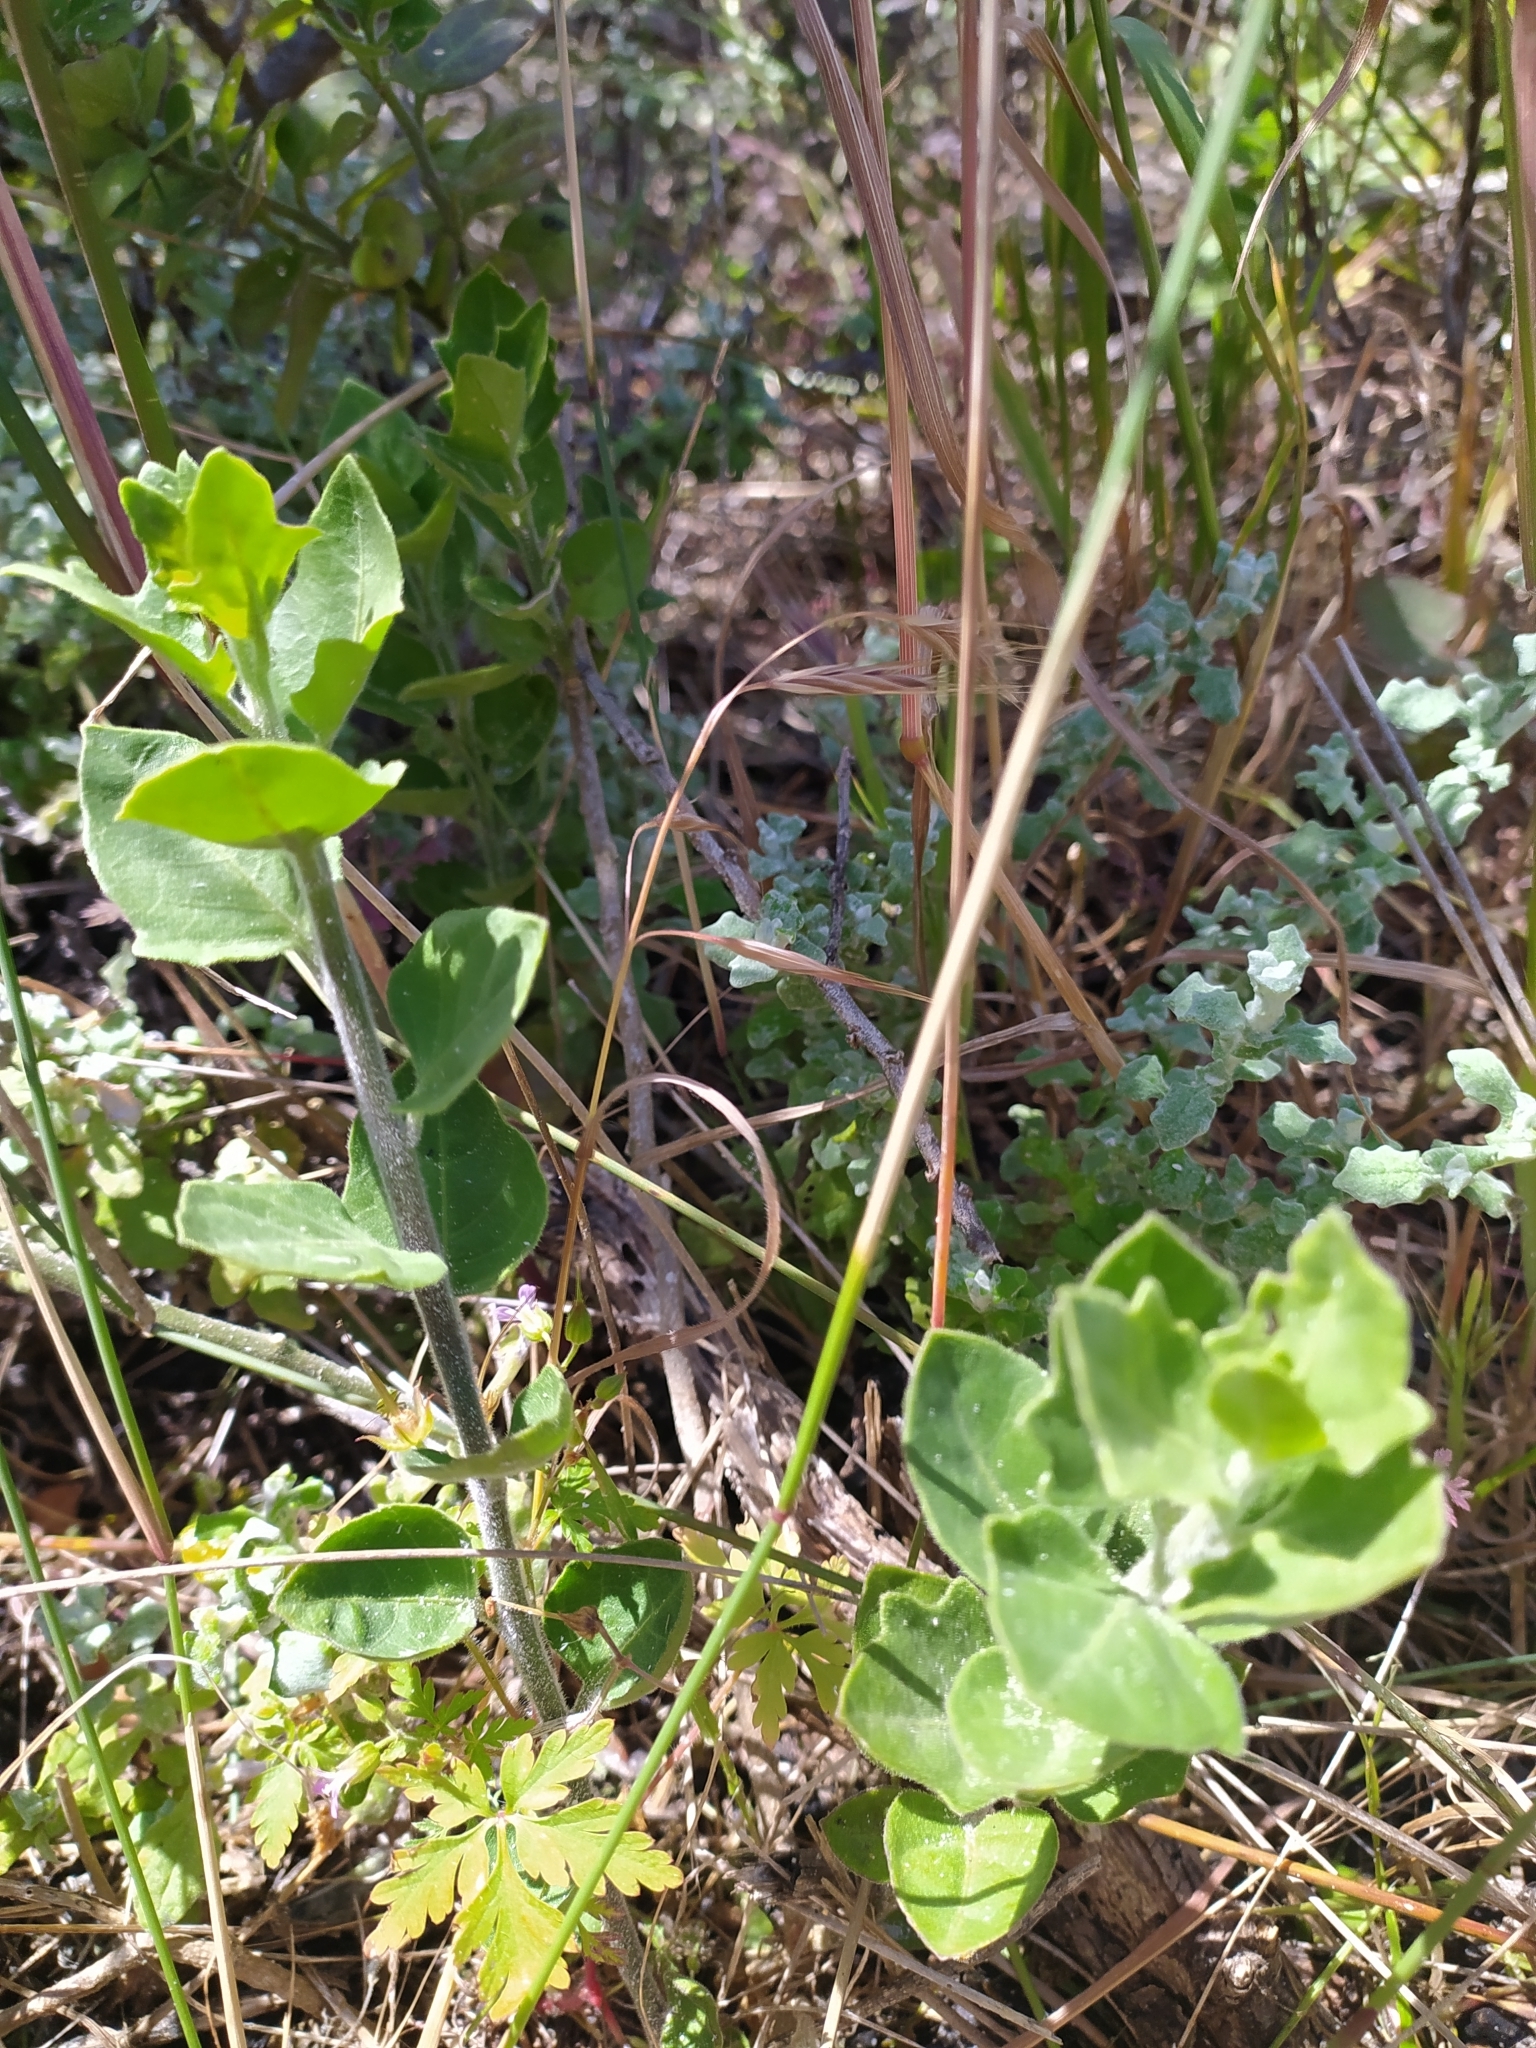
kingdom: Plantae
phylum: Tracheophyta
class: Magnoliopsida
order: Solanales
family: Solanaceae
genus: Solanum
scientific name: Solanum africanum
